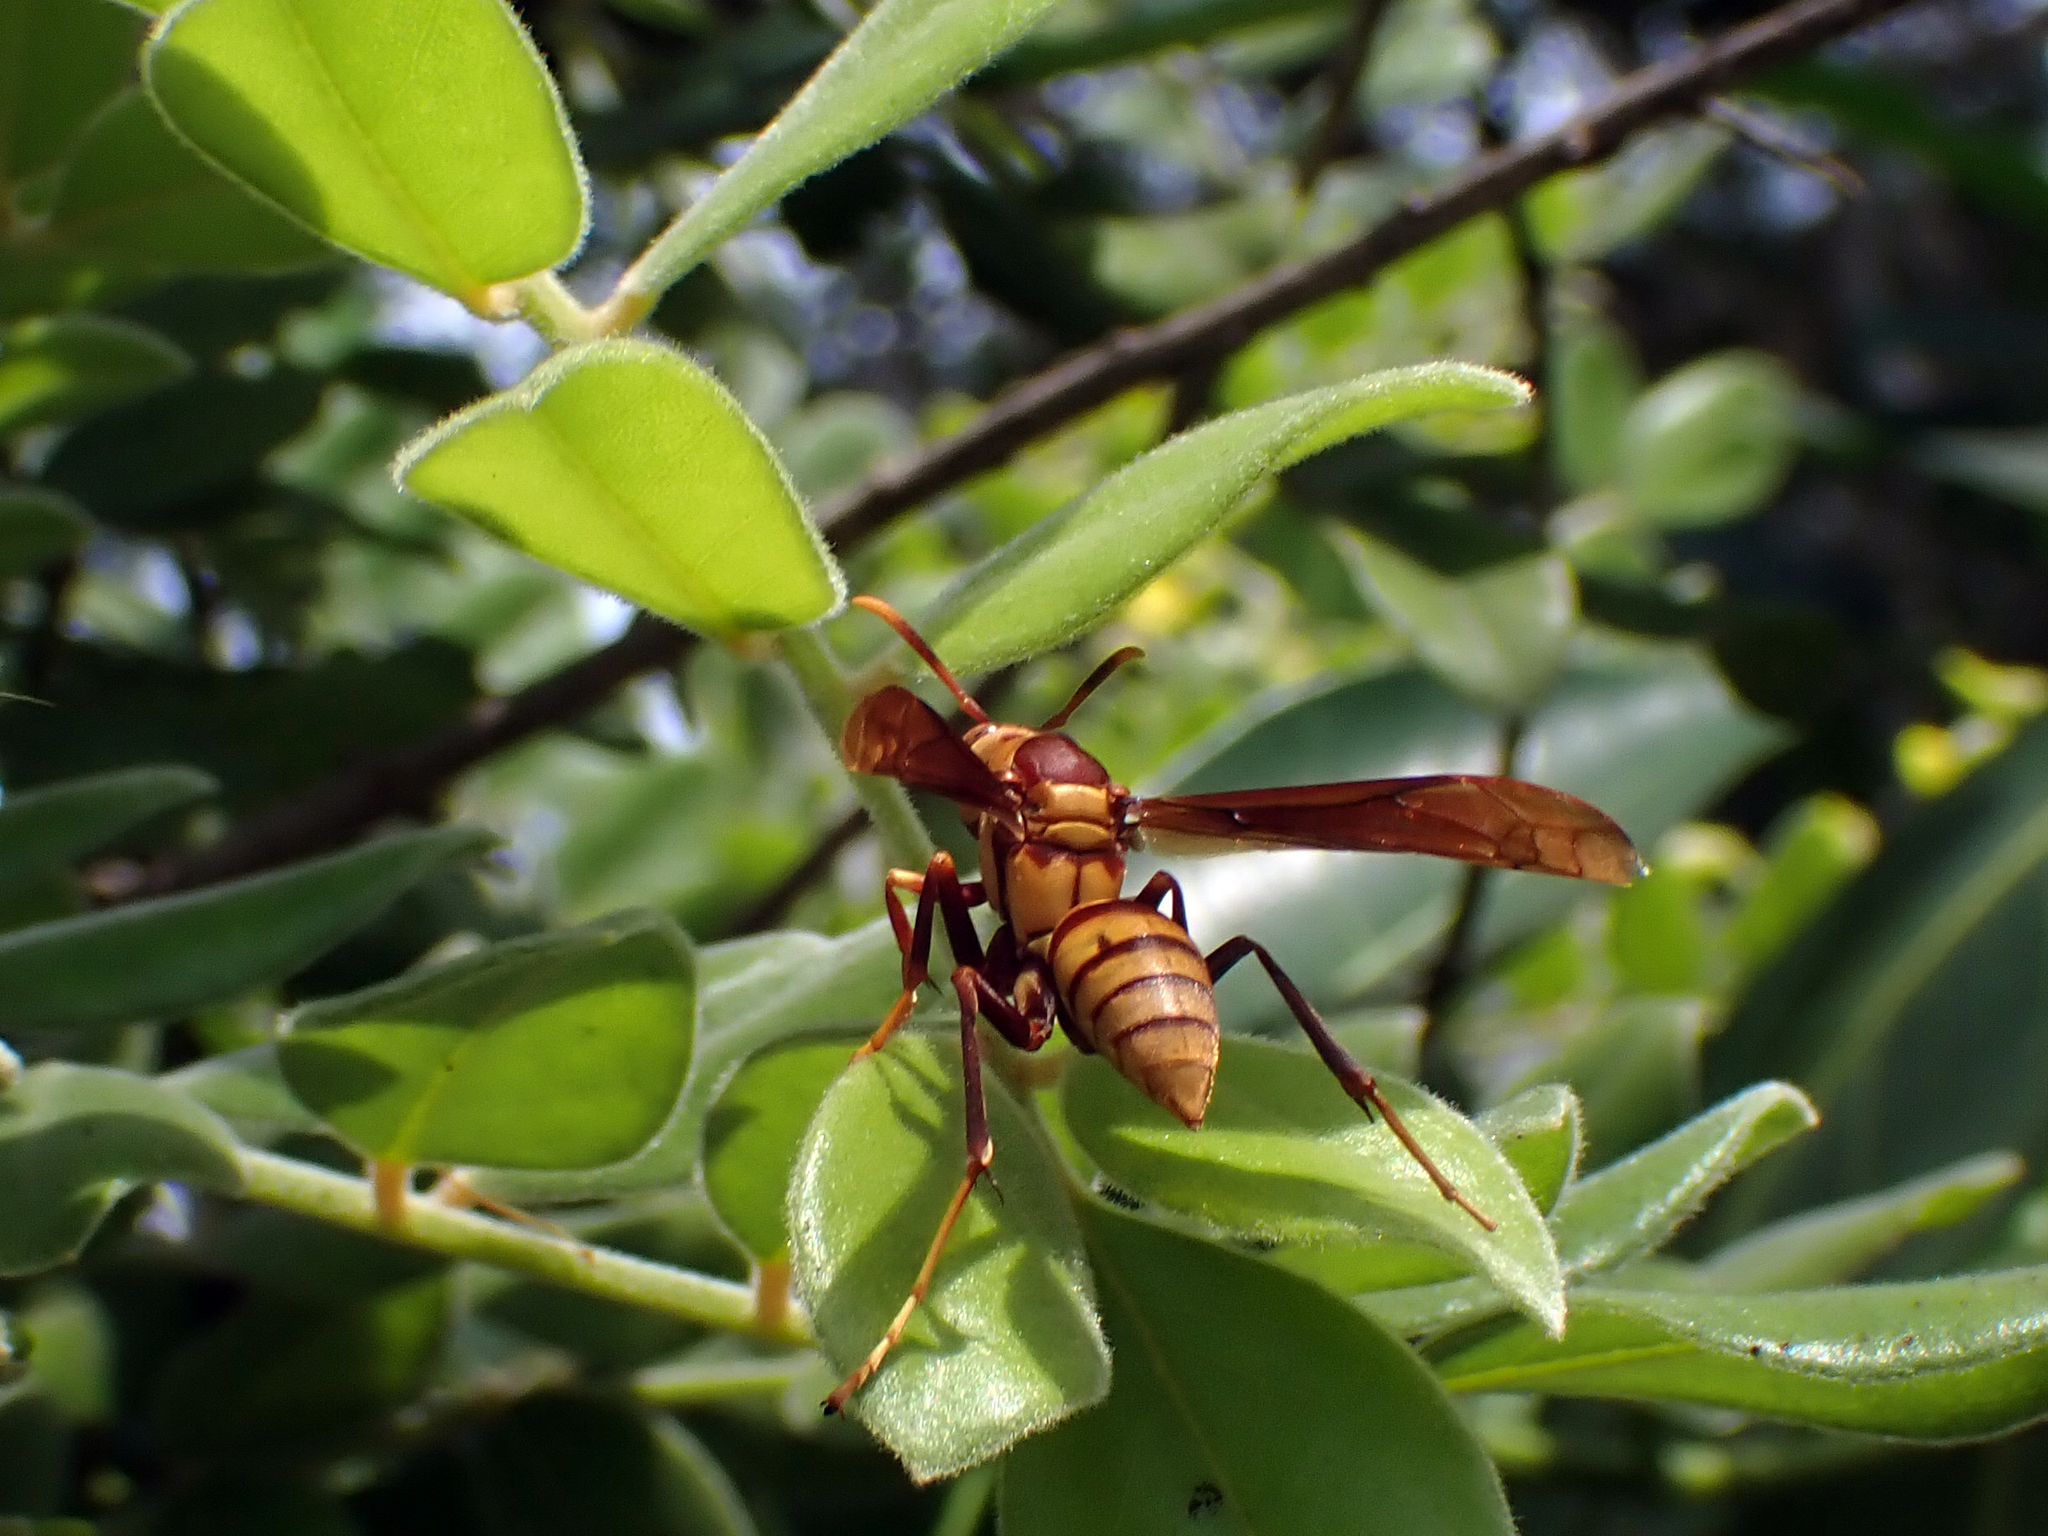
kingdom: Animalia
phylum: Arthropoda
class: Insecta
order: Hymenoptera
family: Eumenidae
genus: Polistes
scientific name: Polistes major
